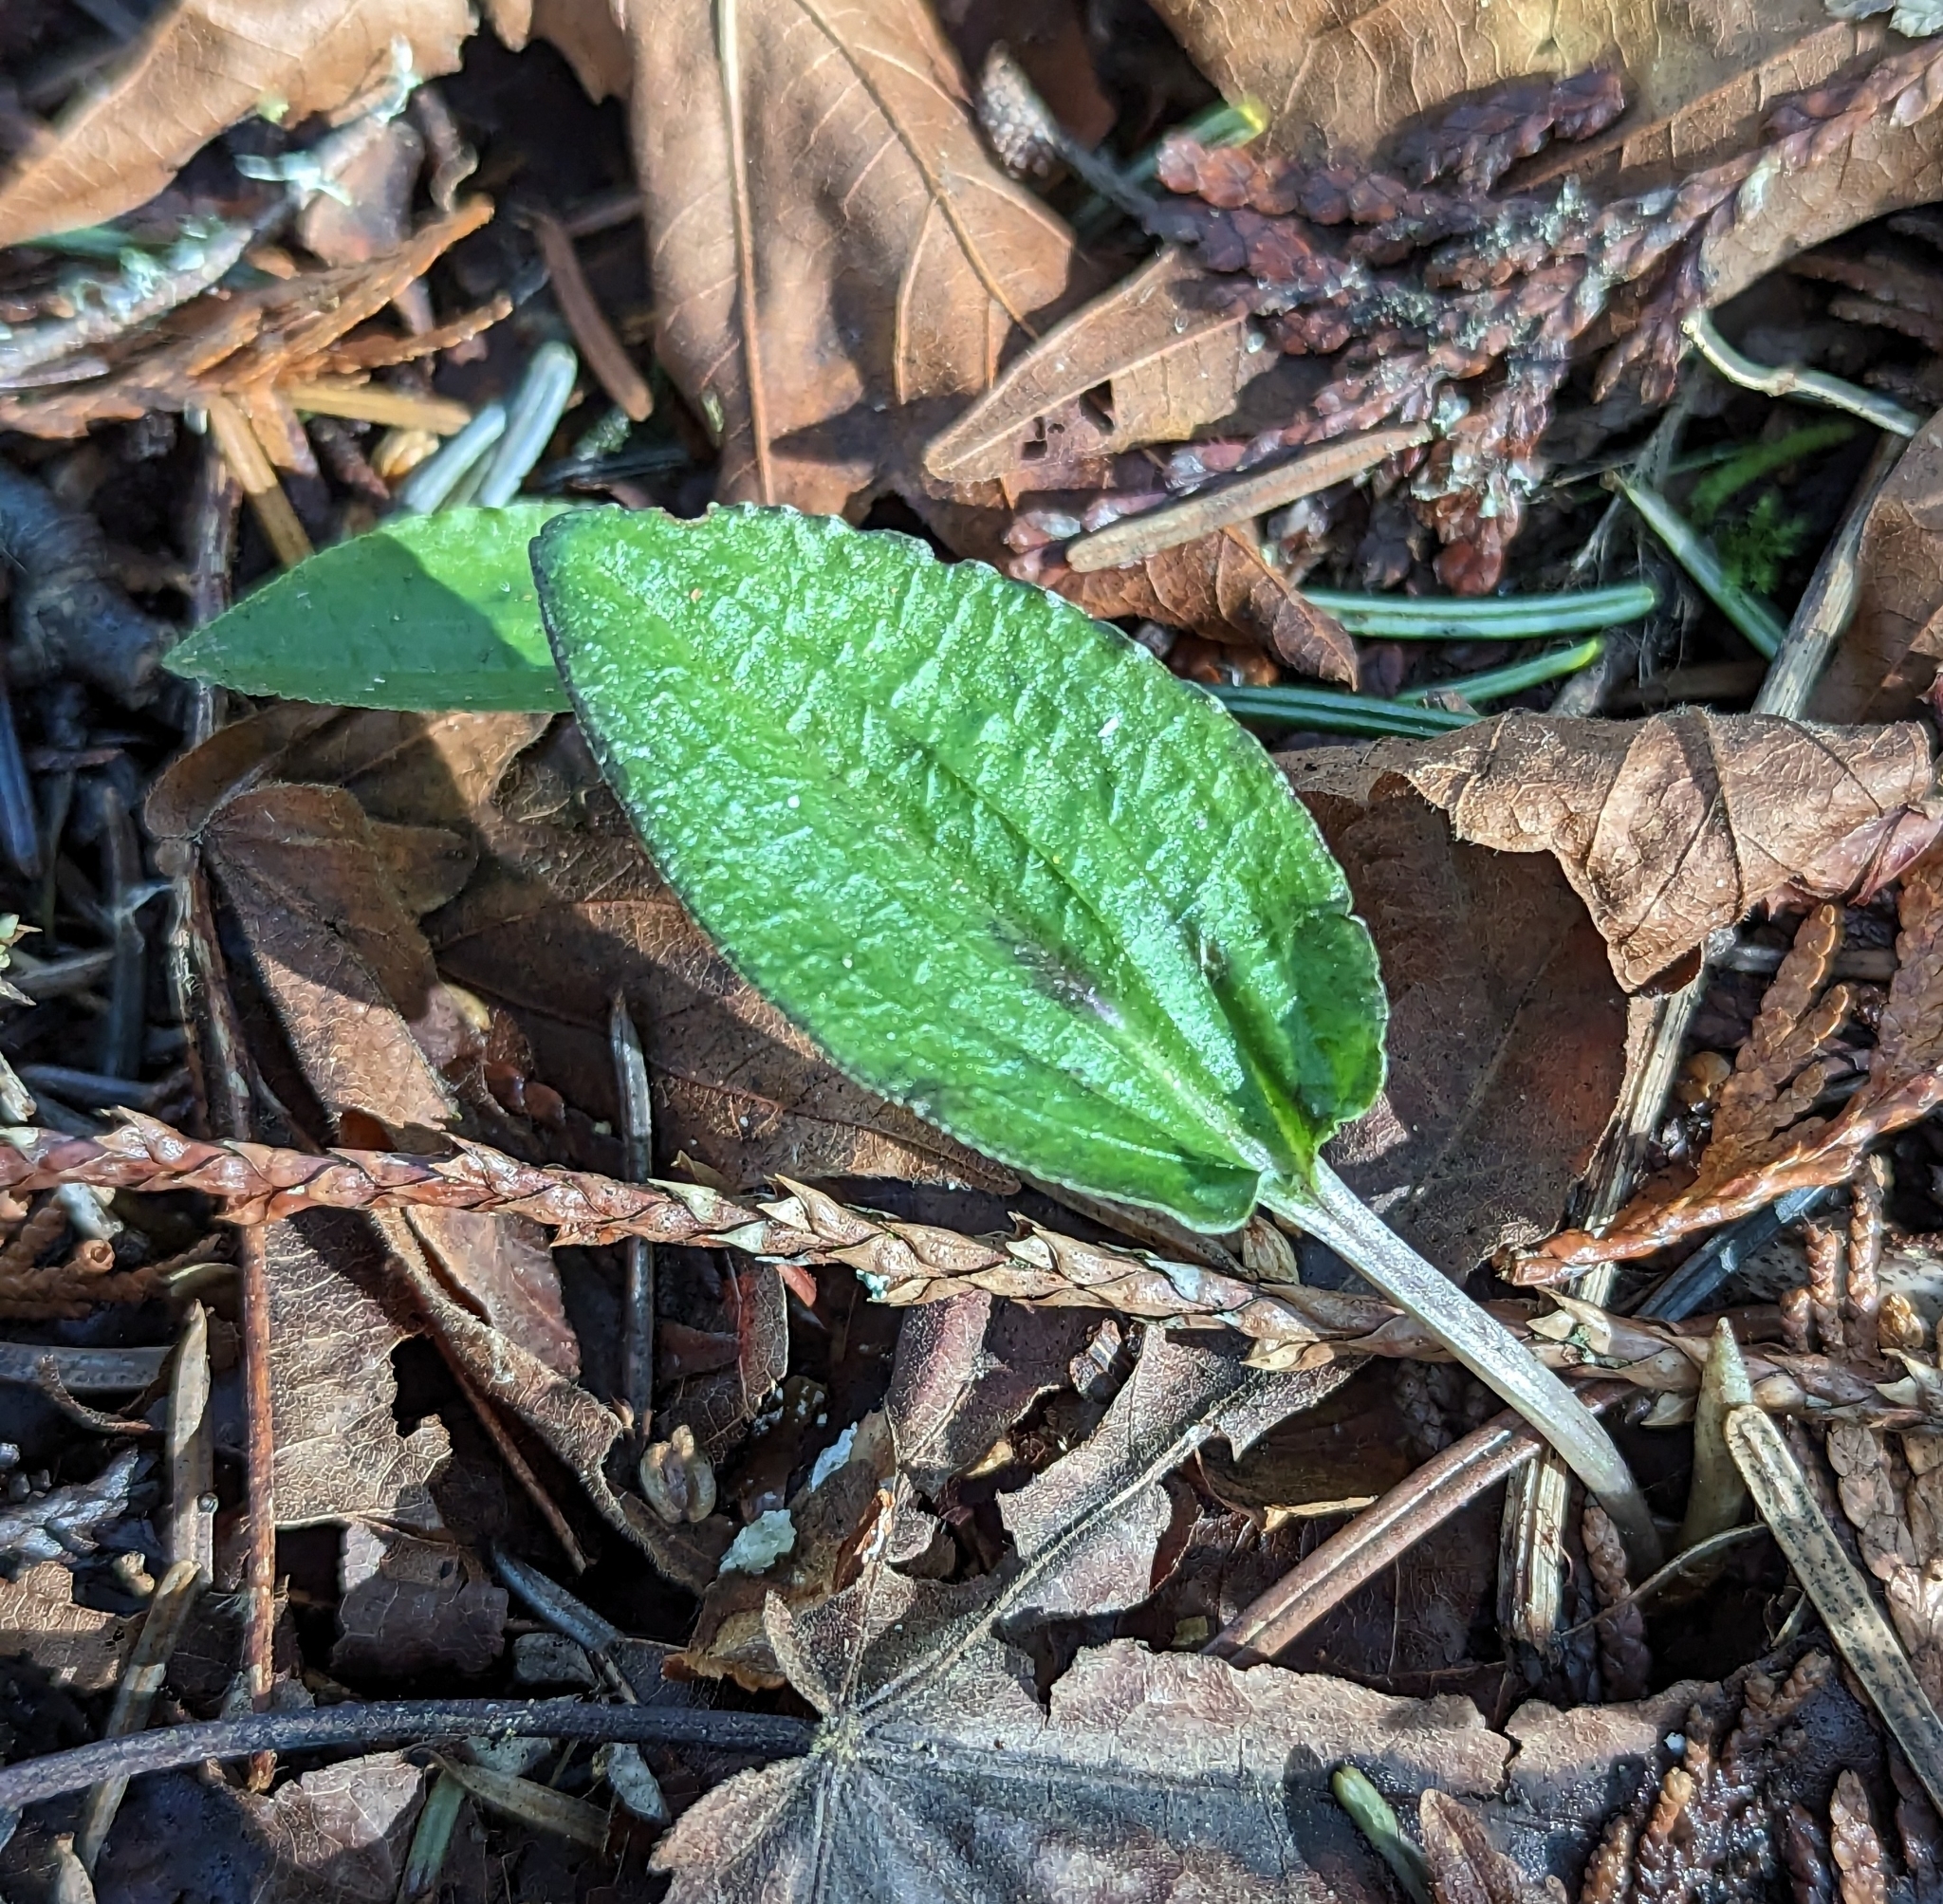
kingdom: Plantae
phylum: Tracheophyta
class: Liliopsida
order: Asparagales
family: Orchidaceae
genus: Calypso
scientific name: Calypso bulbosa
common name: Calypso
